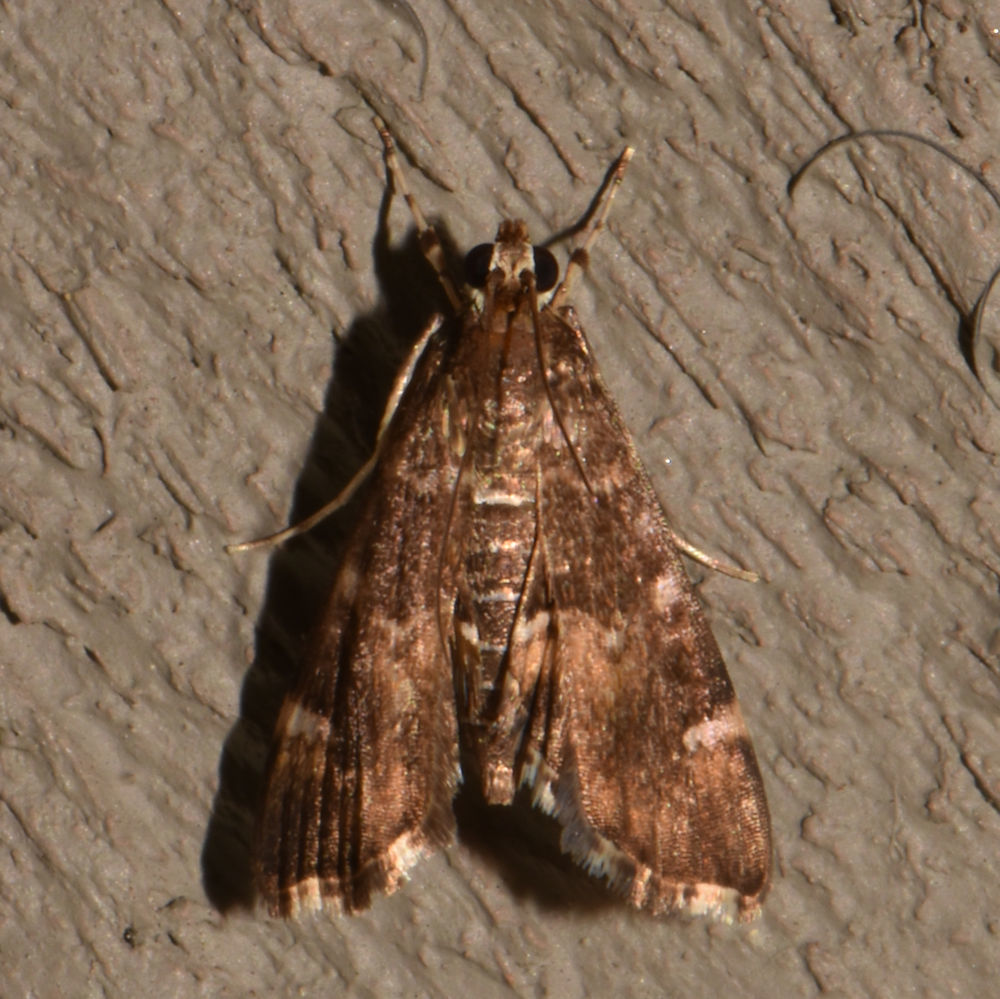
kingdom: Animalia
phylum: Arthropoda
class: Insecta
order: Lepidoptera
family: Crambidae
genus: Hymenia
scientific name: Hymenia perspectalis
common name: Spotted beet webworm
